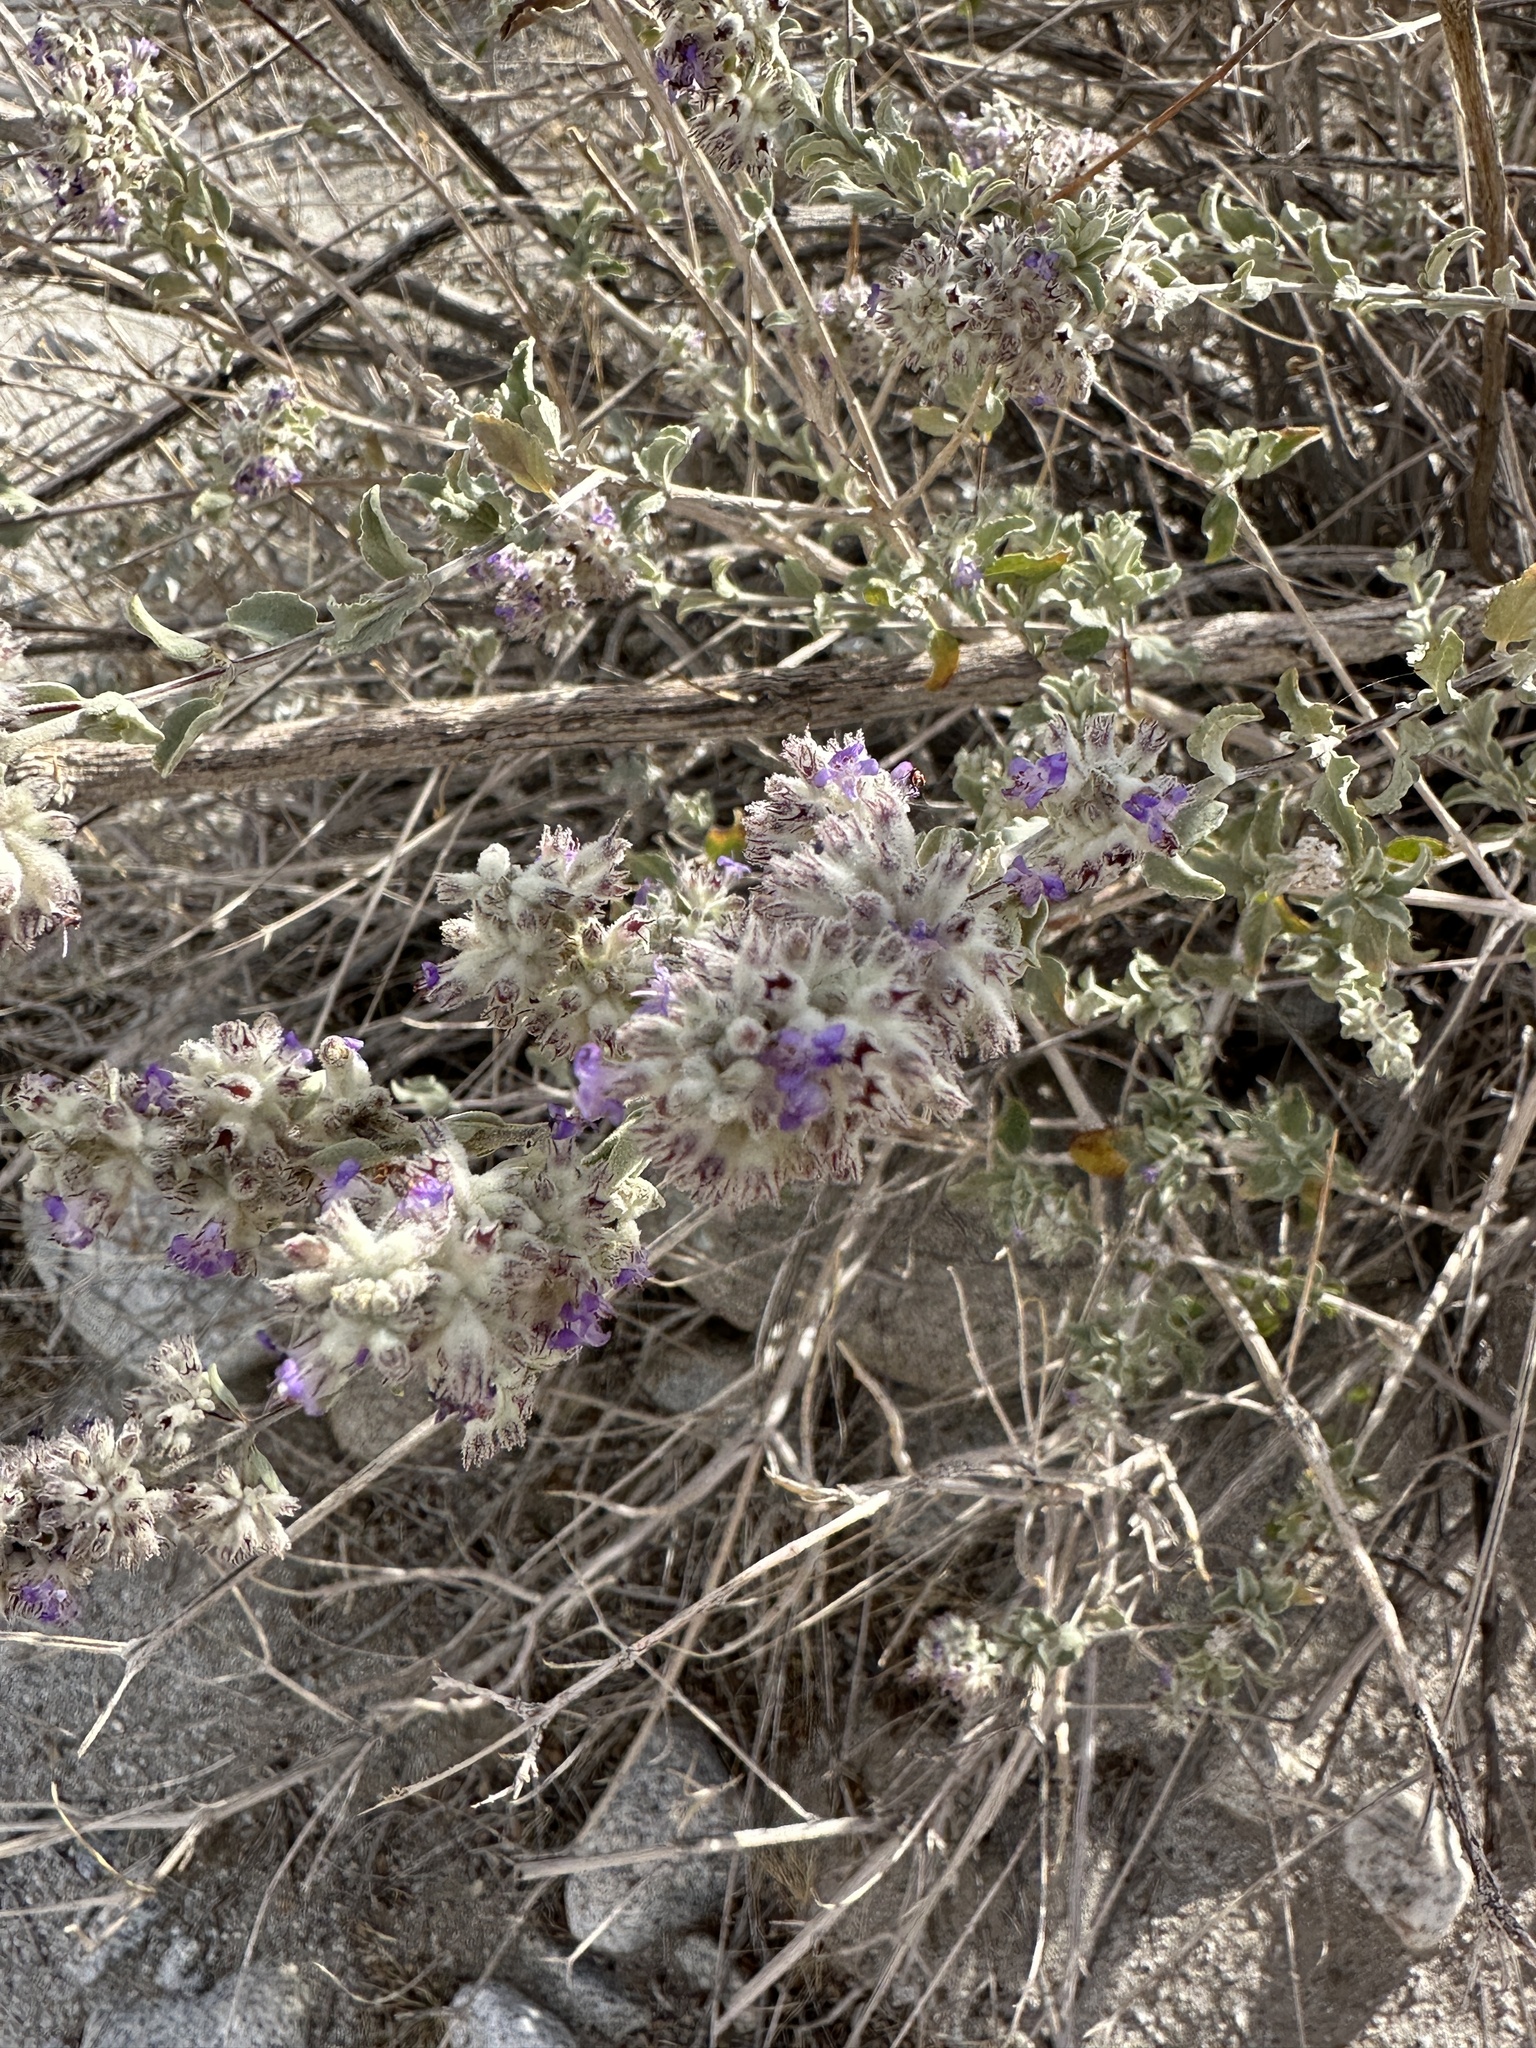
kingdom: Plantae
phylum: Tracheophyta
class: Magnoliopsida
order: Lamiales
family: Lamiaceae
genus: Condea
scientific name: Condea emoryi
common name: Chia
